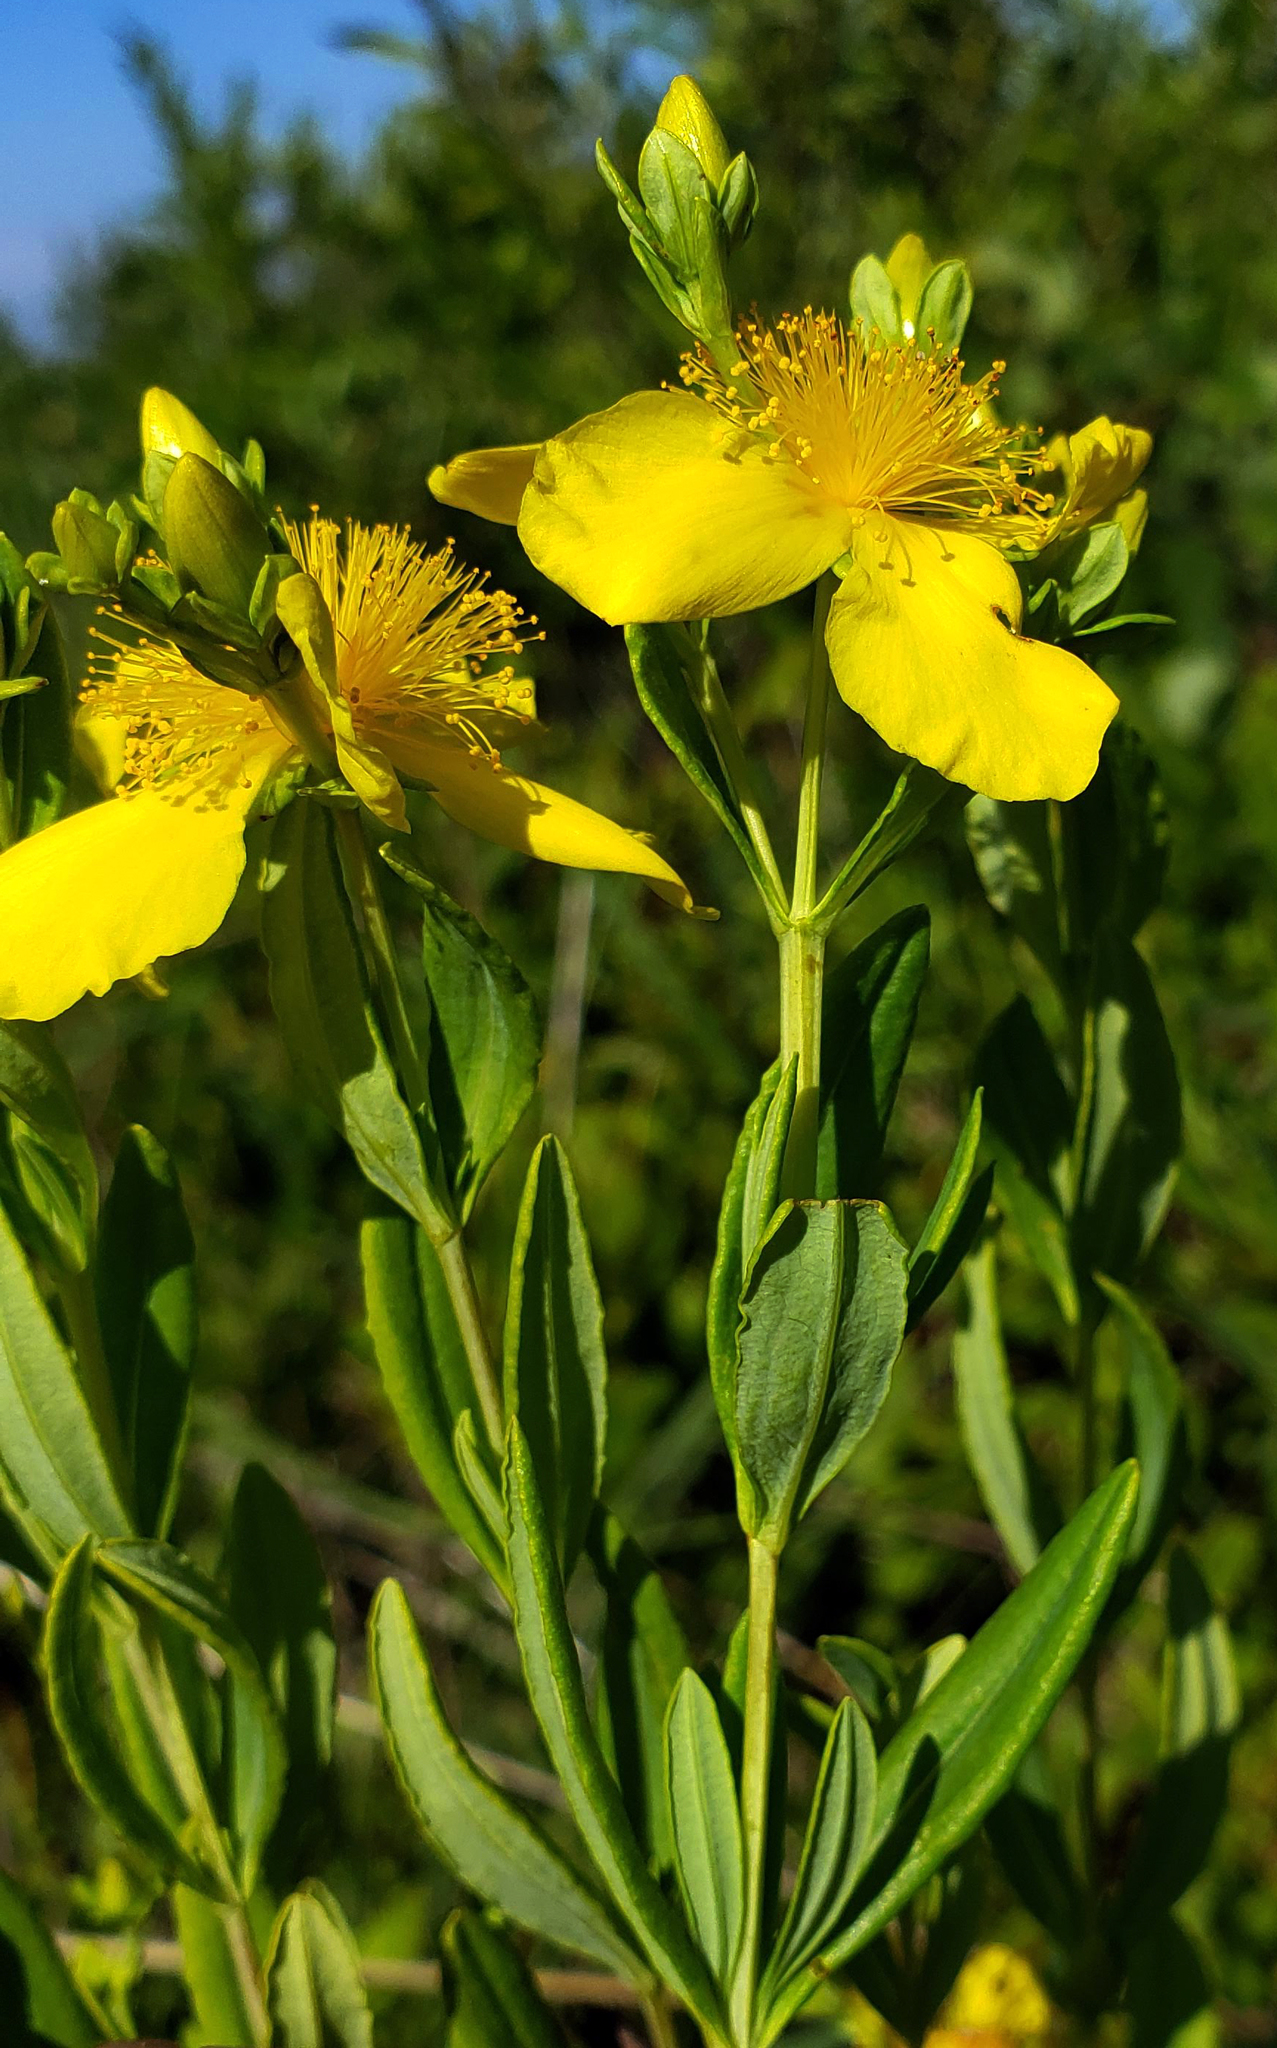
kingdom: Plantae
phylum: Tracheophyta
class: Magnoliopsida
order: Malpighiales
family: Hypericaceae
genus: Hypericum
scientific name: Hypericum kalmianum
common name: Kalm's st. john's-wort
